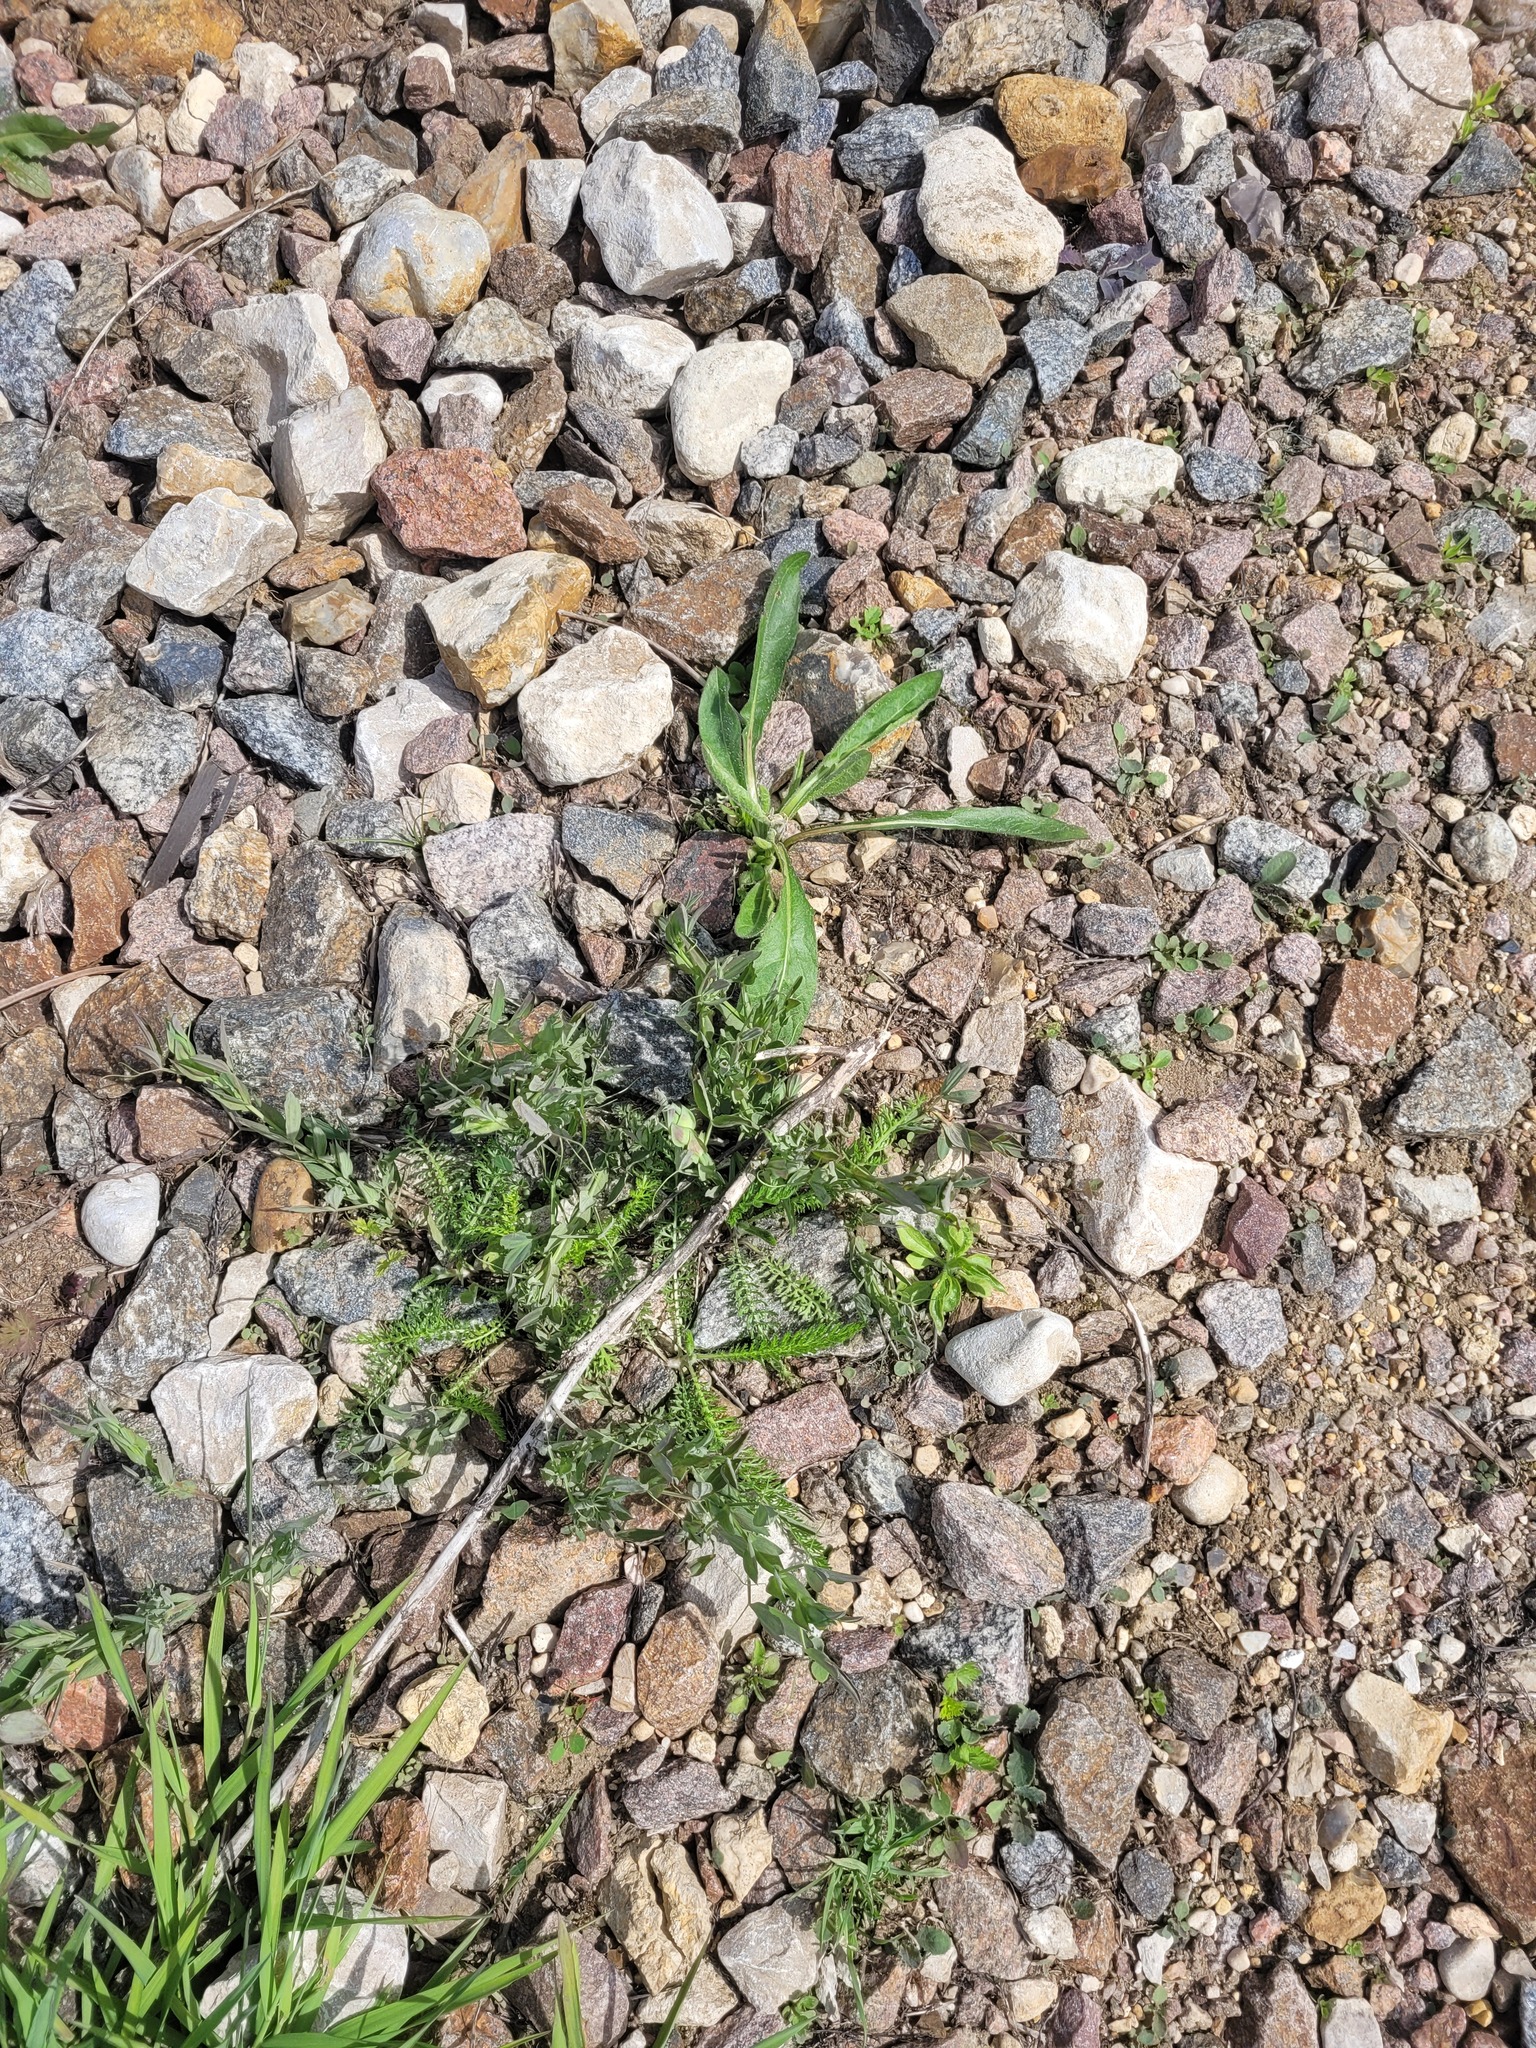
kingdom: Plantae
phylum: Tracheophyta
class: Magnoliopsida
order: Fabales
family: Fabaceae
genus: Lathyrus
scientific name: Lathyrus pratensis
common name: Meadow vetchling
